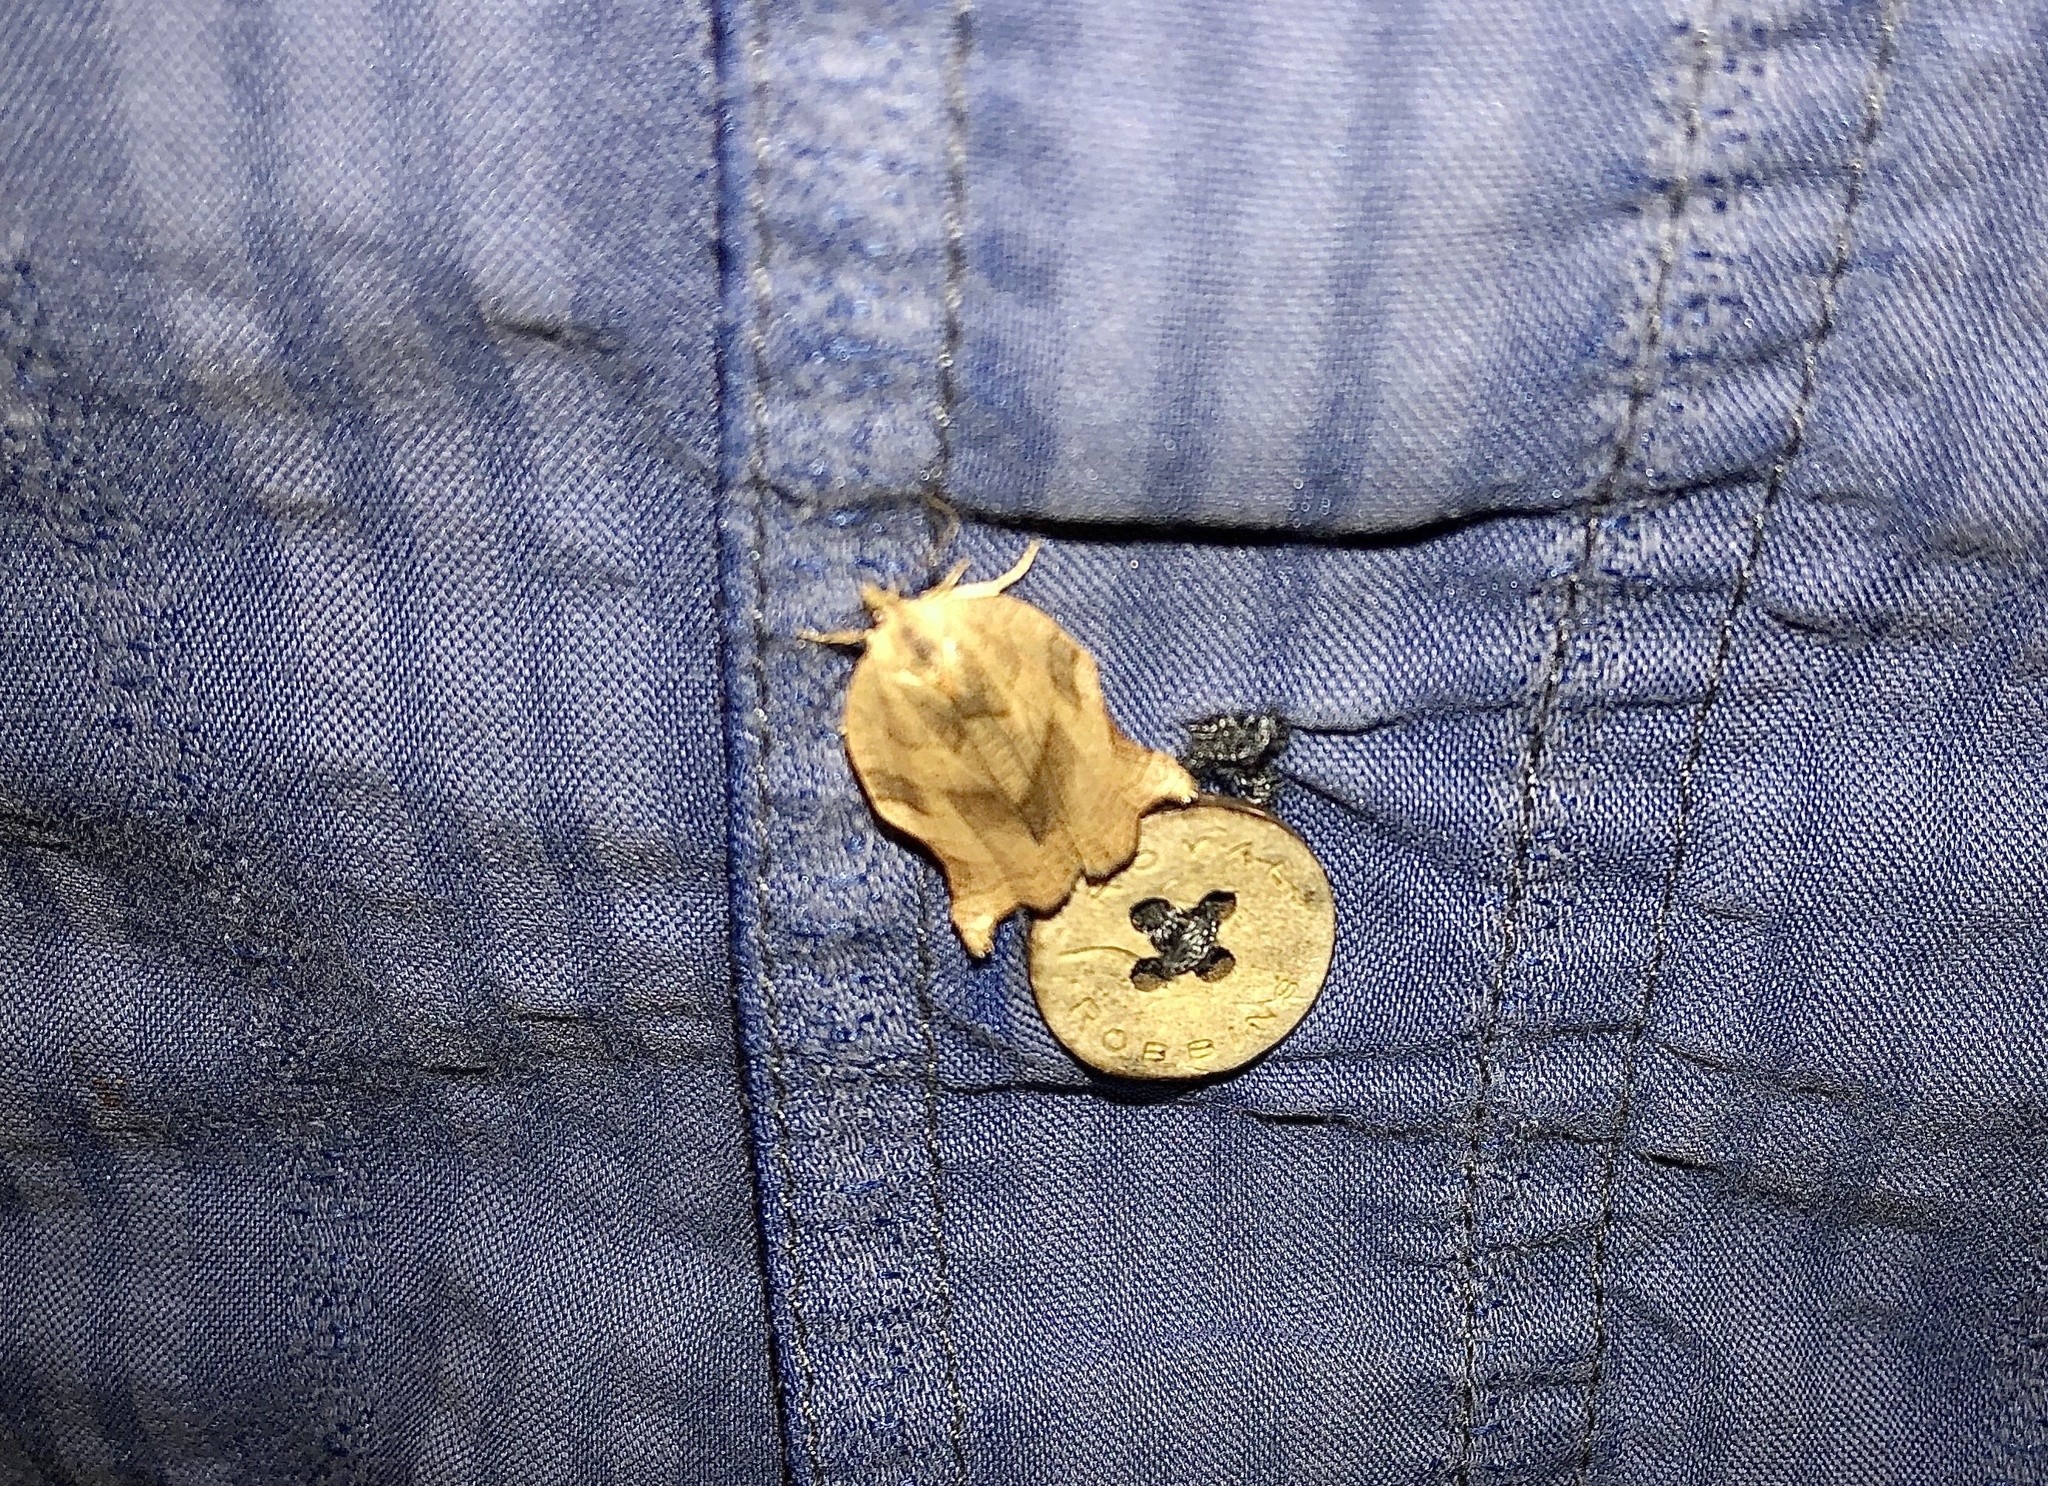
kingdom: Animalia
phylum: Arthropoda
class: Insecta
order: Lepidoptera
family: Tortricidae
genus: Choristoneura
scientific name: Choristoneura rosaceana
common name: Oblique-banded leafroller moth
